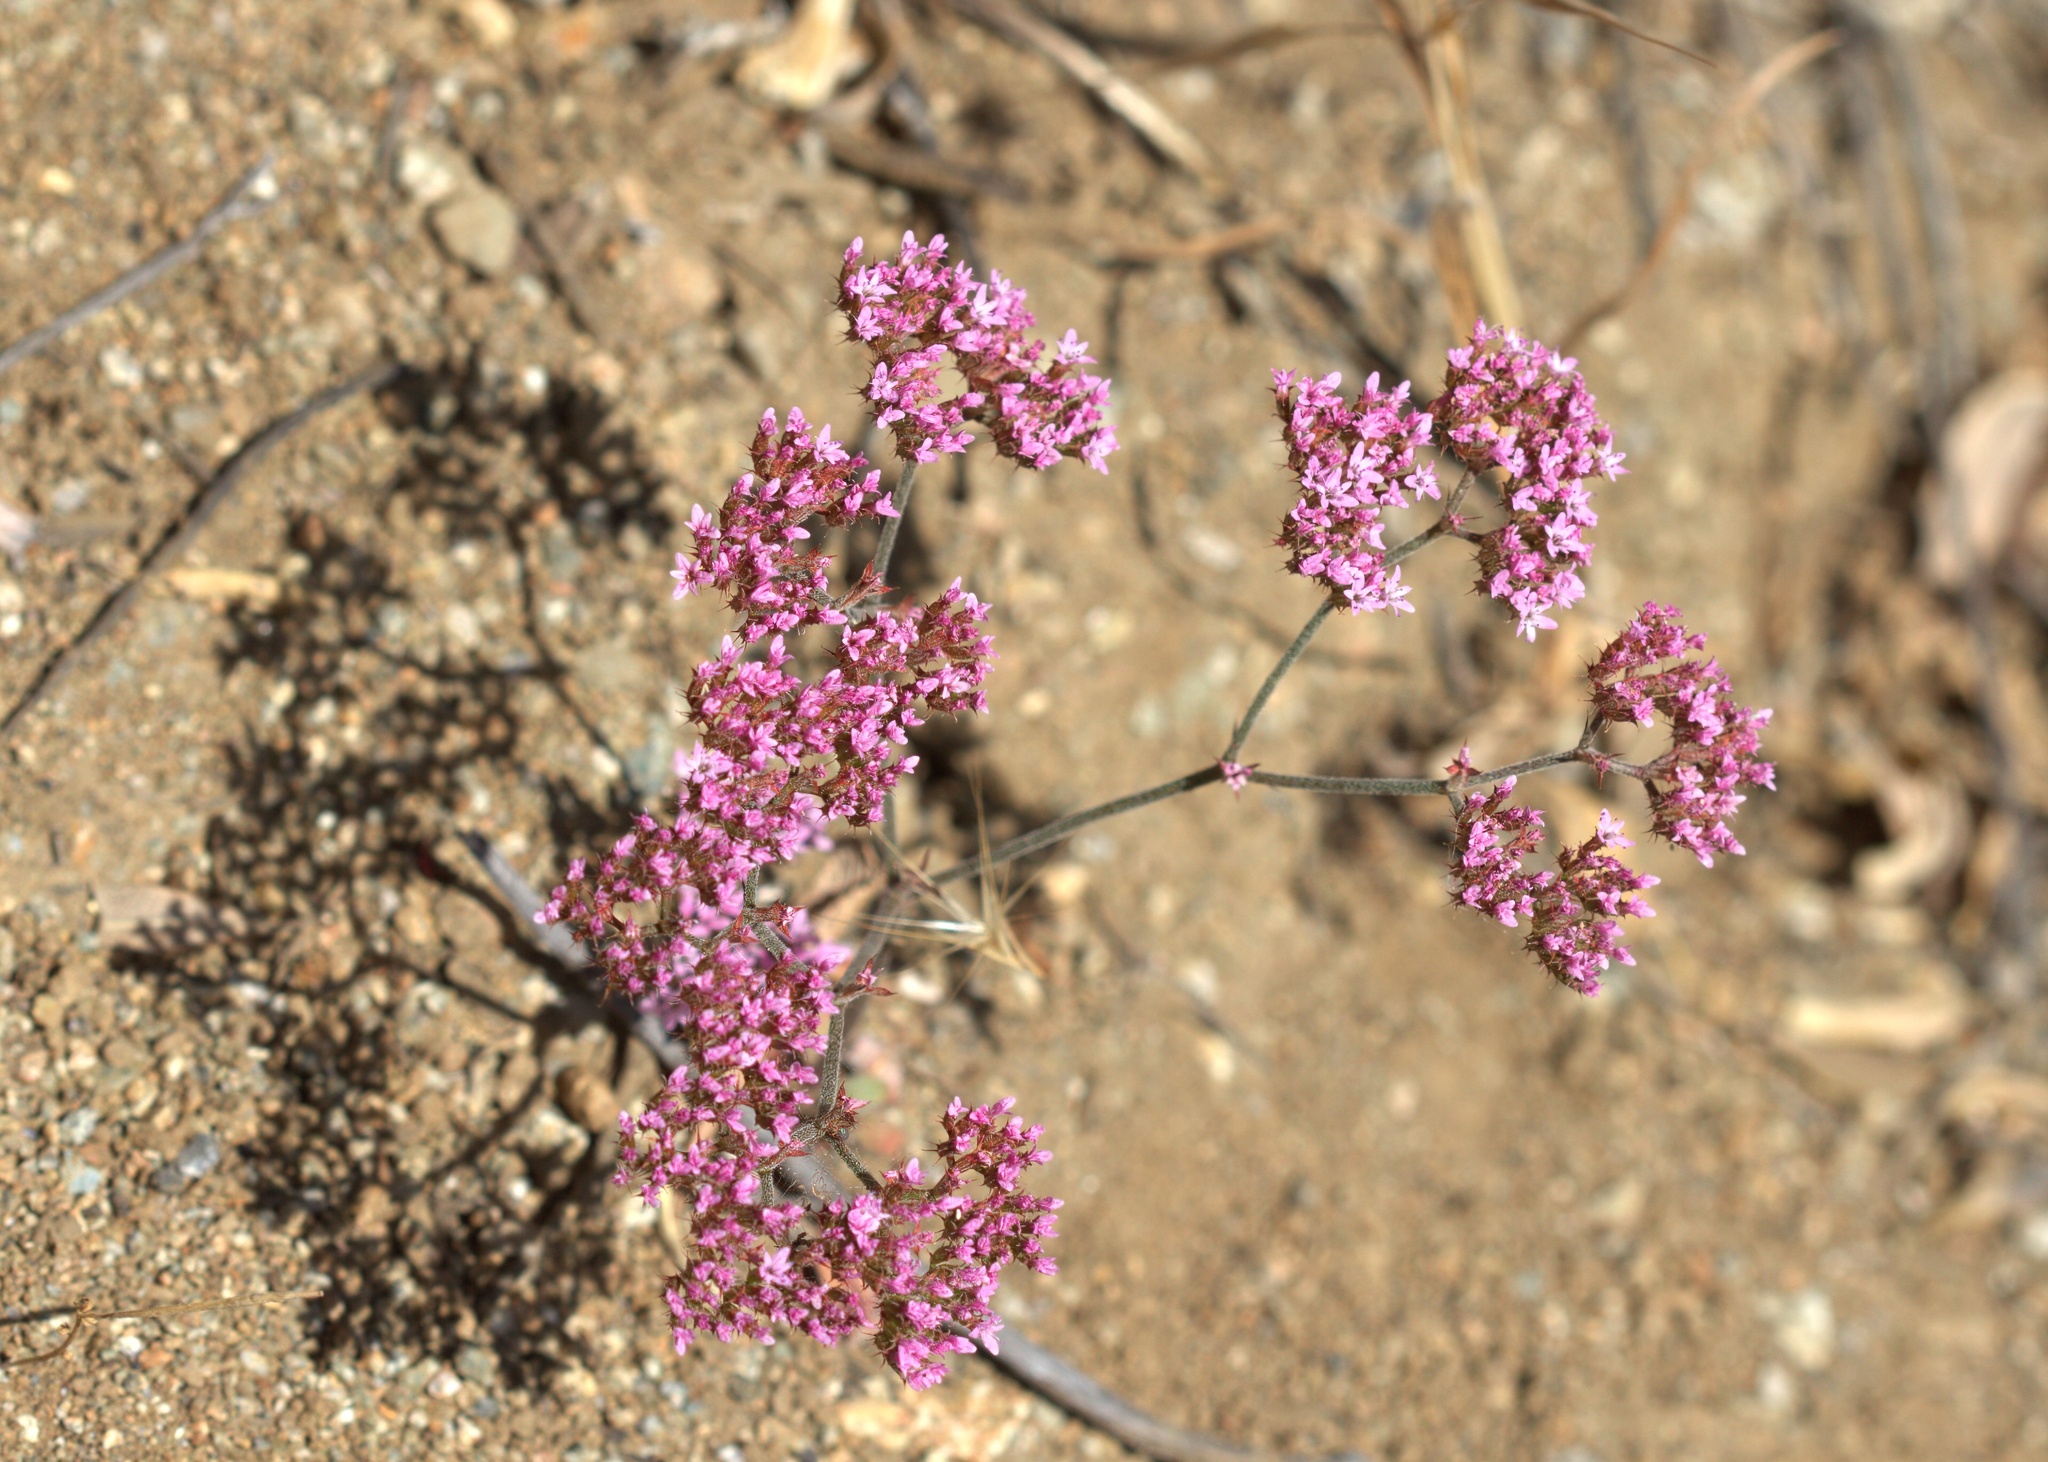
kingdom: Plantae
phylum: Tracheophyta
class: Magnoliopsida
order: Caryophyllales
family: Polygonaceae
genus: Chorizanthe
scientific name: Chorizanthe staticoides
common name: Turkish rugging
